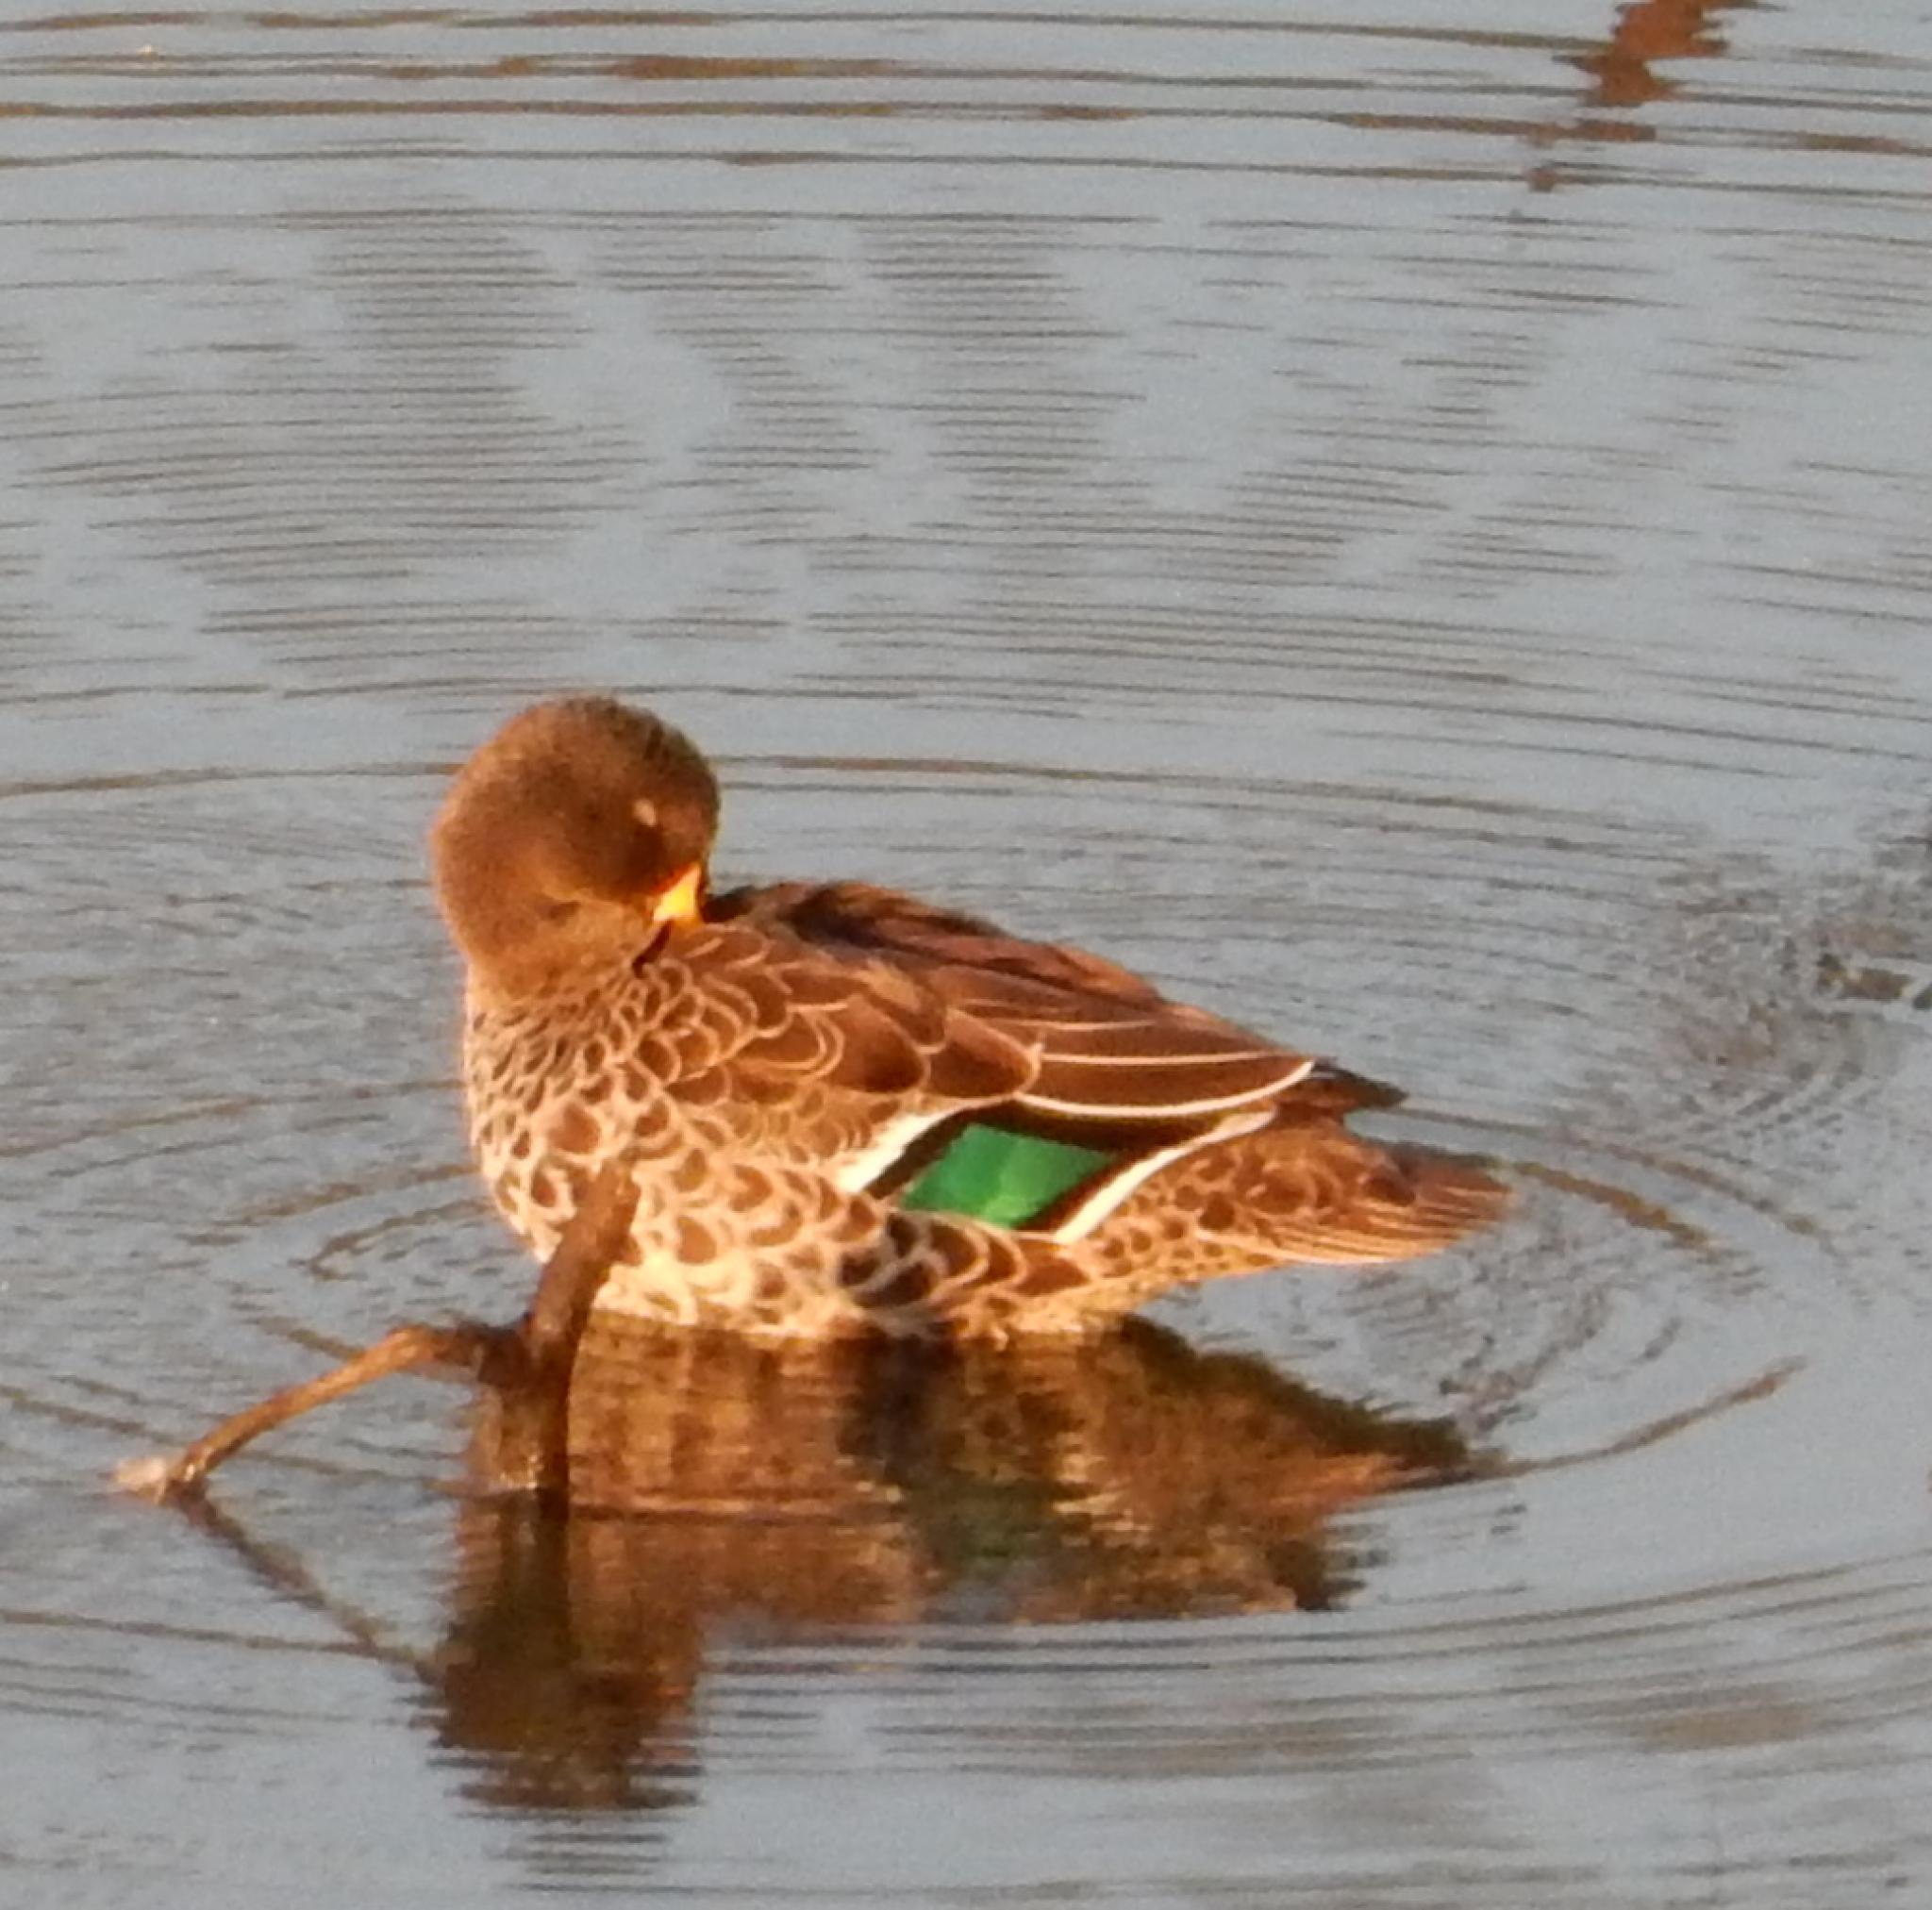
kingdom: Animalia
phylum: Chordata
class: Aves
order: Anseriformes
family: Anatidae
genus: Anas
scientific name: Anas undulata
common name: Yellow-billed duck
